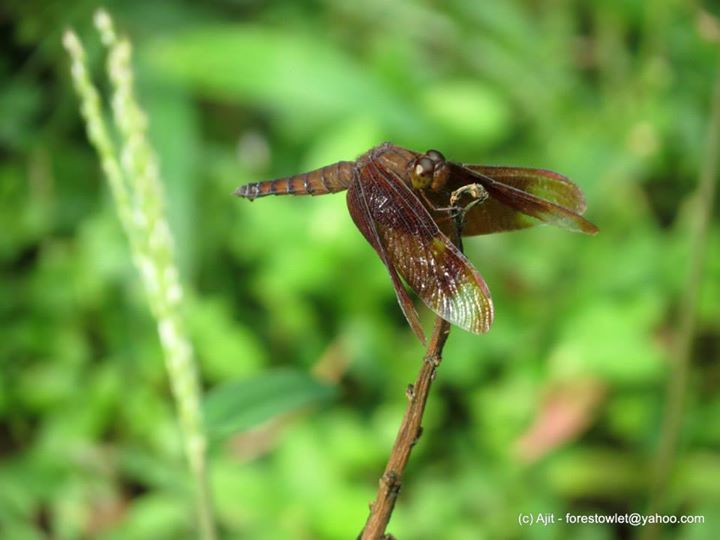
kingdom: Animalia
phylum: Arthropoda
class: Insecta
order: Odonata
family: Libellulidae
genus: Neurothemis
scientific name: Neurothemis fulvia
